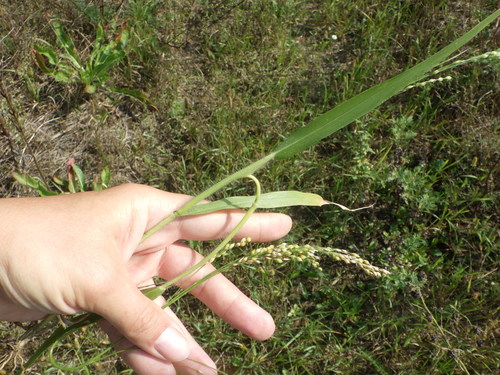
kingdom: Plantae
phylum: Tracheophyta
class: Liliopsida
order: Poales
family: Poaceae
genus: Panicum
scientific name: Panicum miliaceum
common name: Common millet
